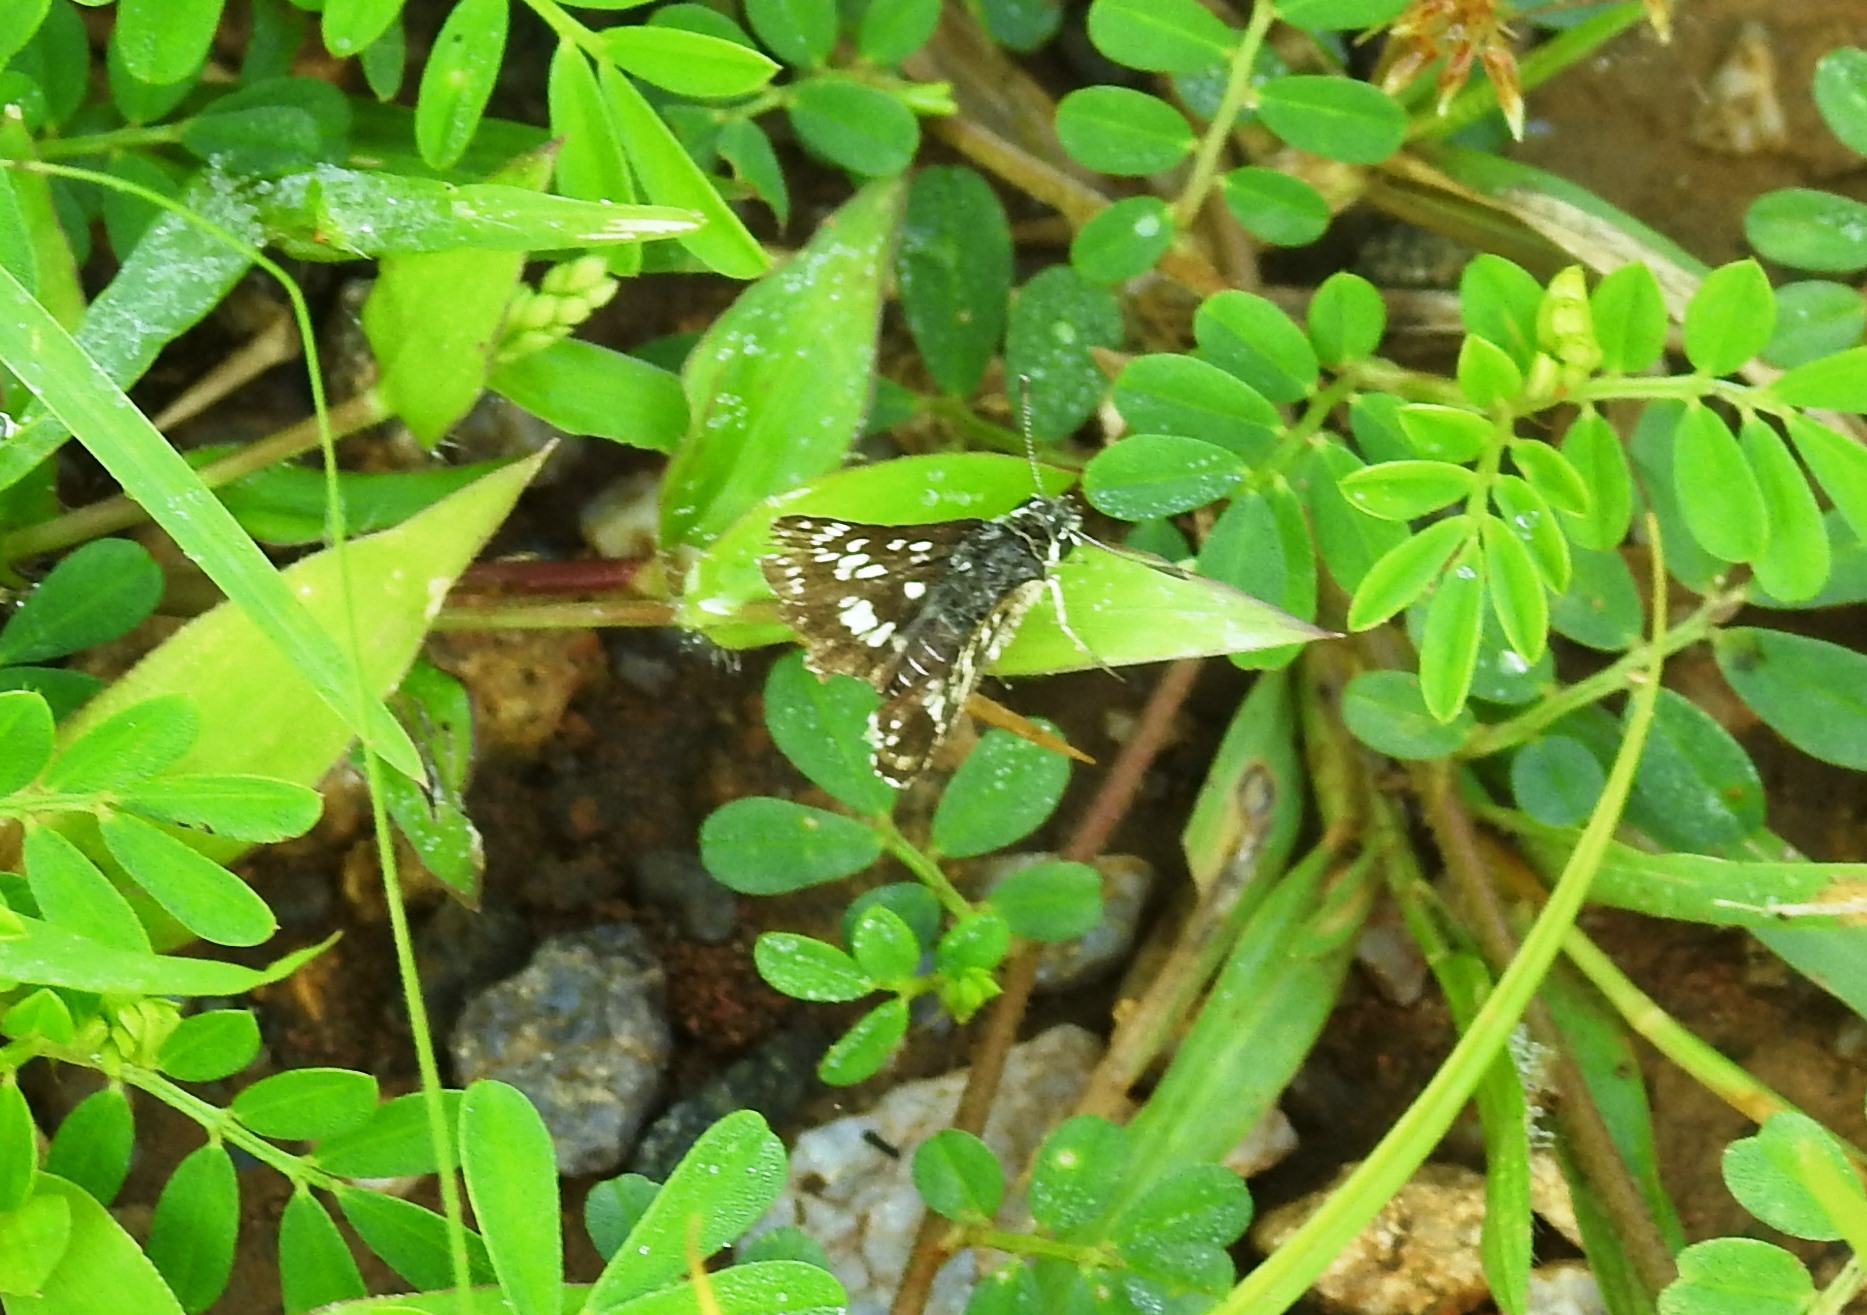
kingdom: Animalia
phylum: Arthropoda
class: Insecta
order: Lepidoptera
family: Hesperiidae
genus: Spialia
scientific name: Spialia galba
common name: Indian skipper
